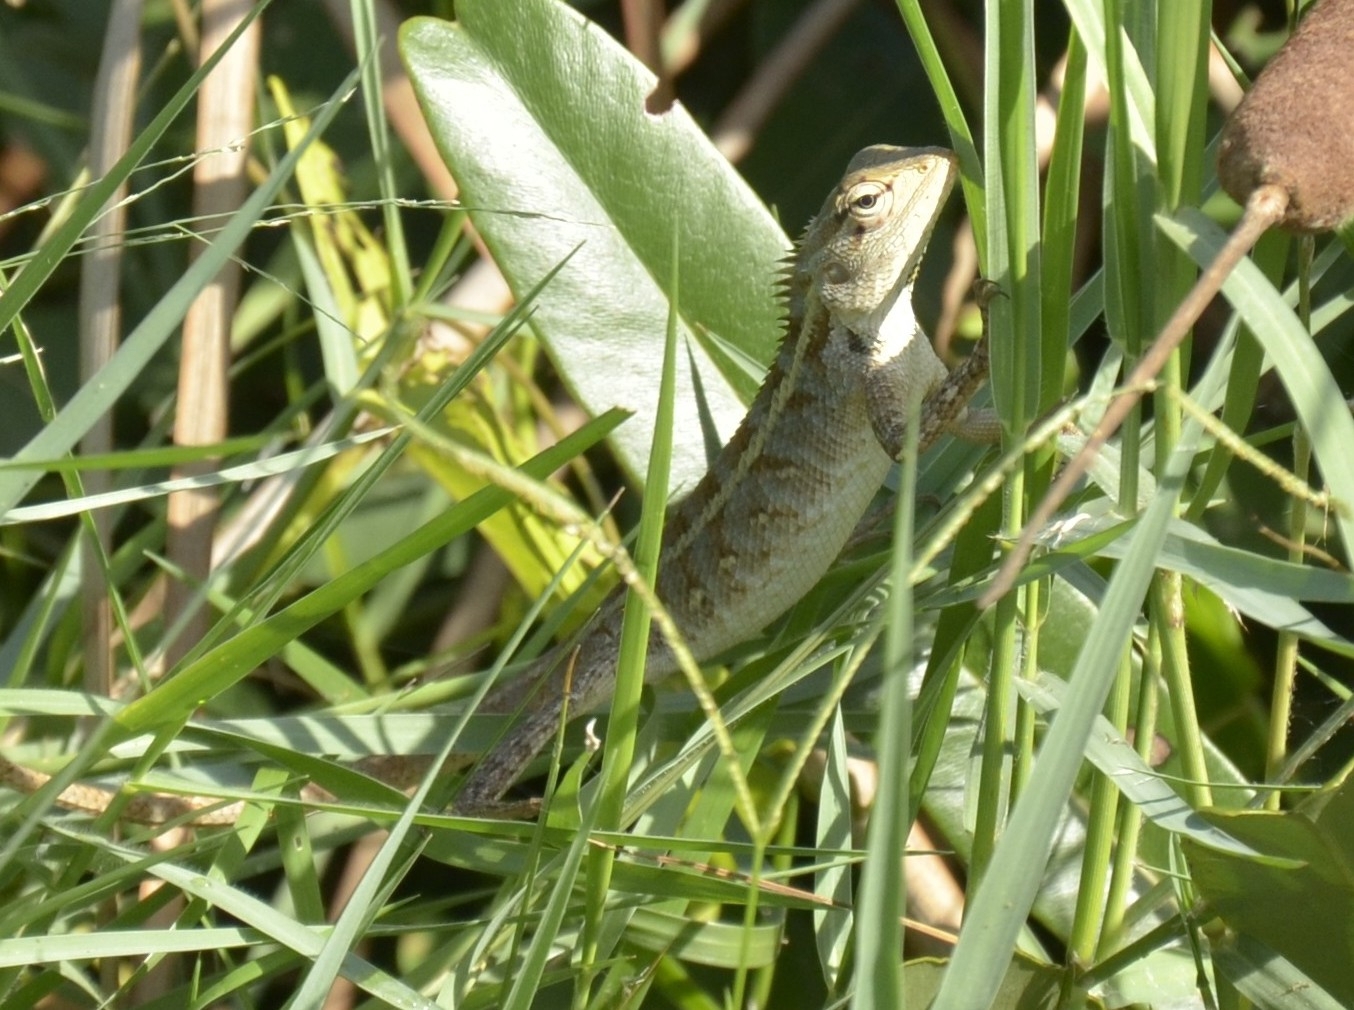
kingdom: Animalia
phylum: Chordata
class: Squamata
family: Agamidae
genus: Calotes
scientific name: Calotes versicolor
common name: Oriental garden lizard
